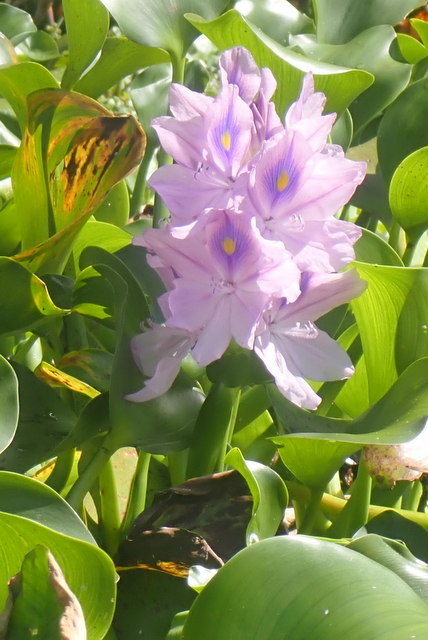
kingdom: Plantae
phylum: Tracheophyta
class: Liliopsida
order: Commelinales
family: Pontederiaceae
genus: Pontederia
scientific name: Pontederia crassipes
